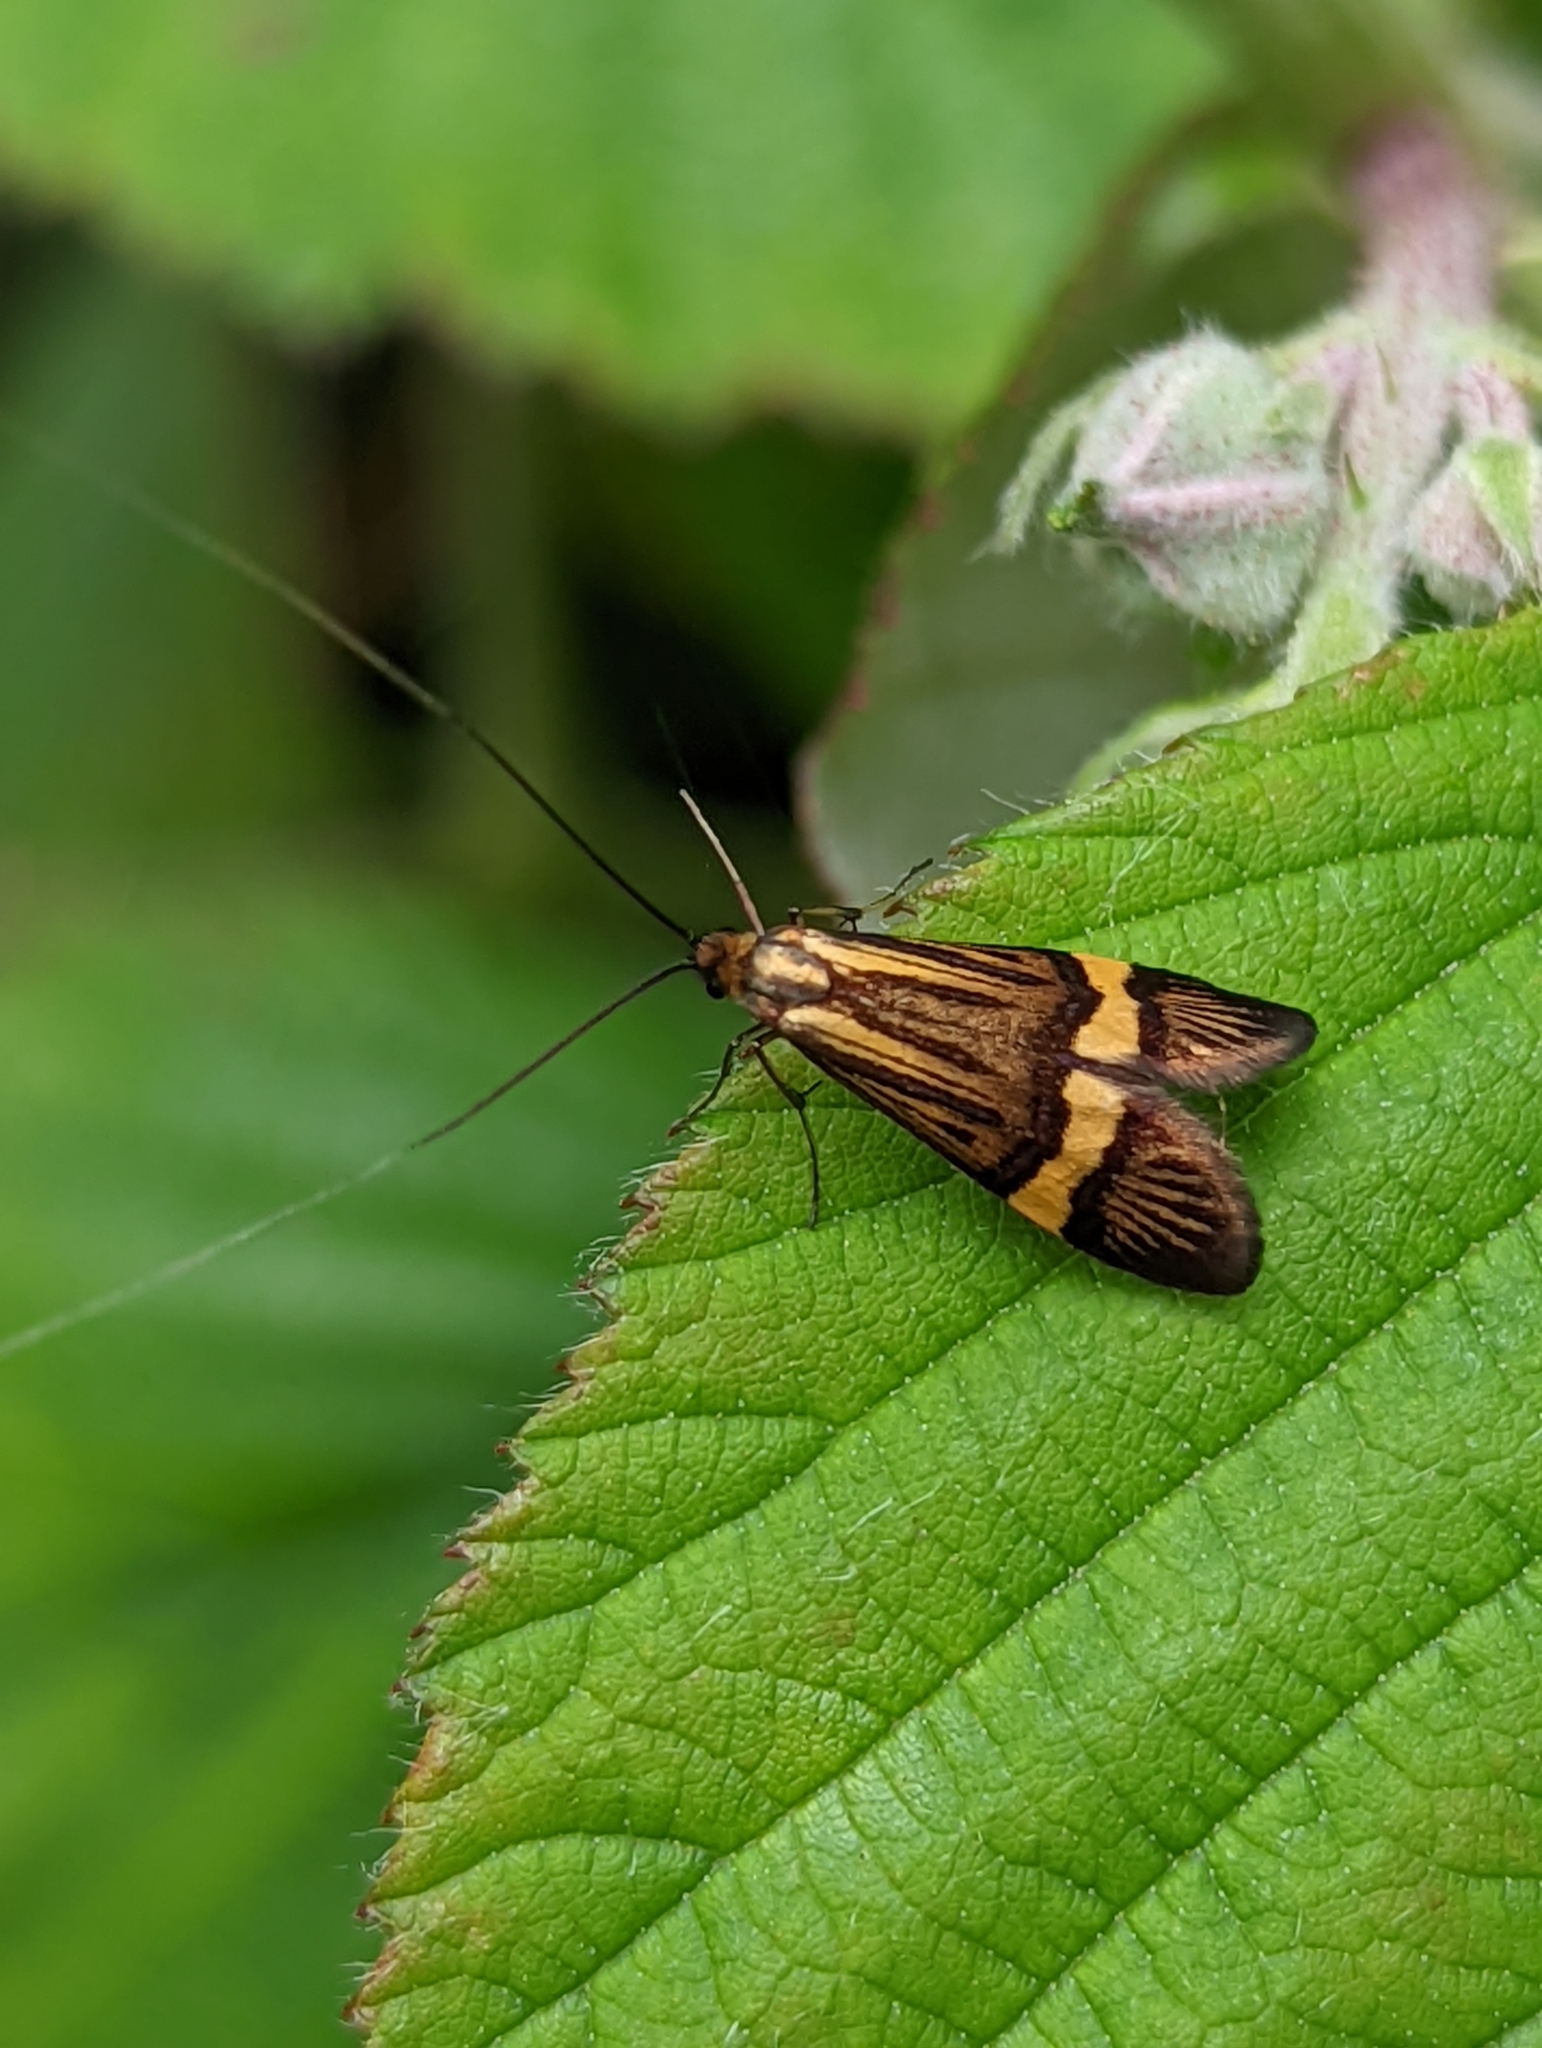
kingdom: Animalia
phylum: Arthropoda
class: Insecta
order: Lepidoptera
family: Adelidae
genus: Nemophora
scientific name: Nemophora degeerella
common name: Yellow-barred long-horn
